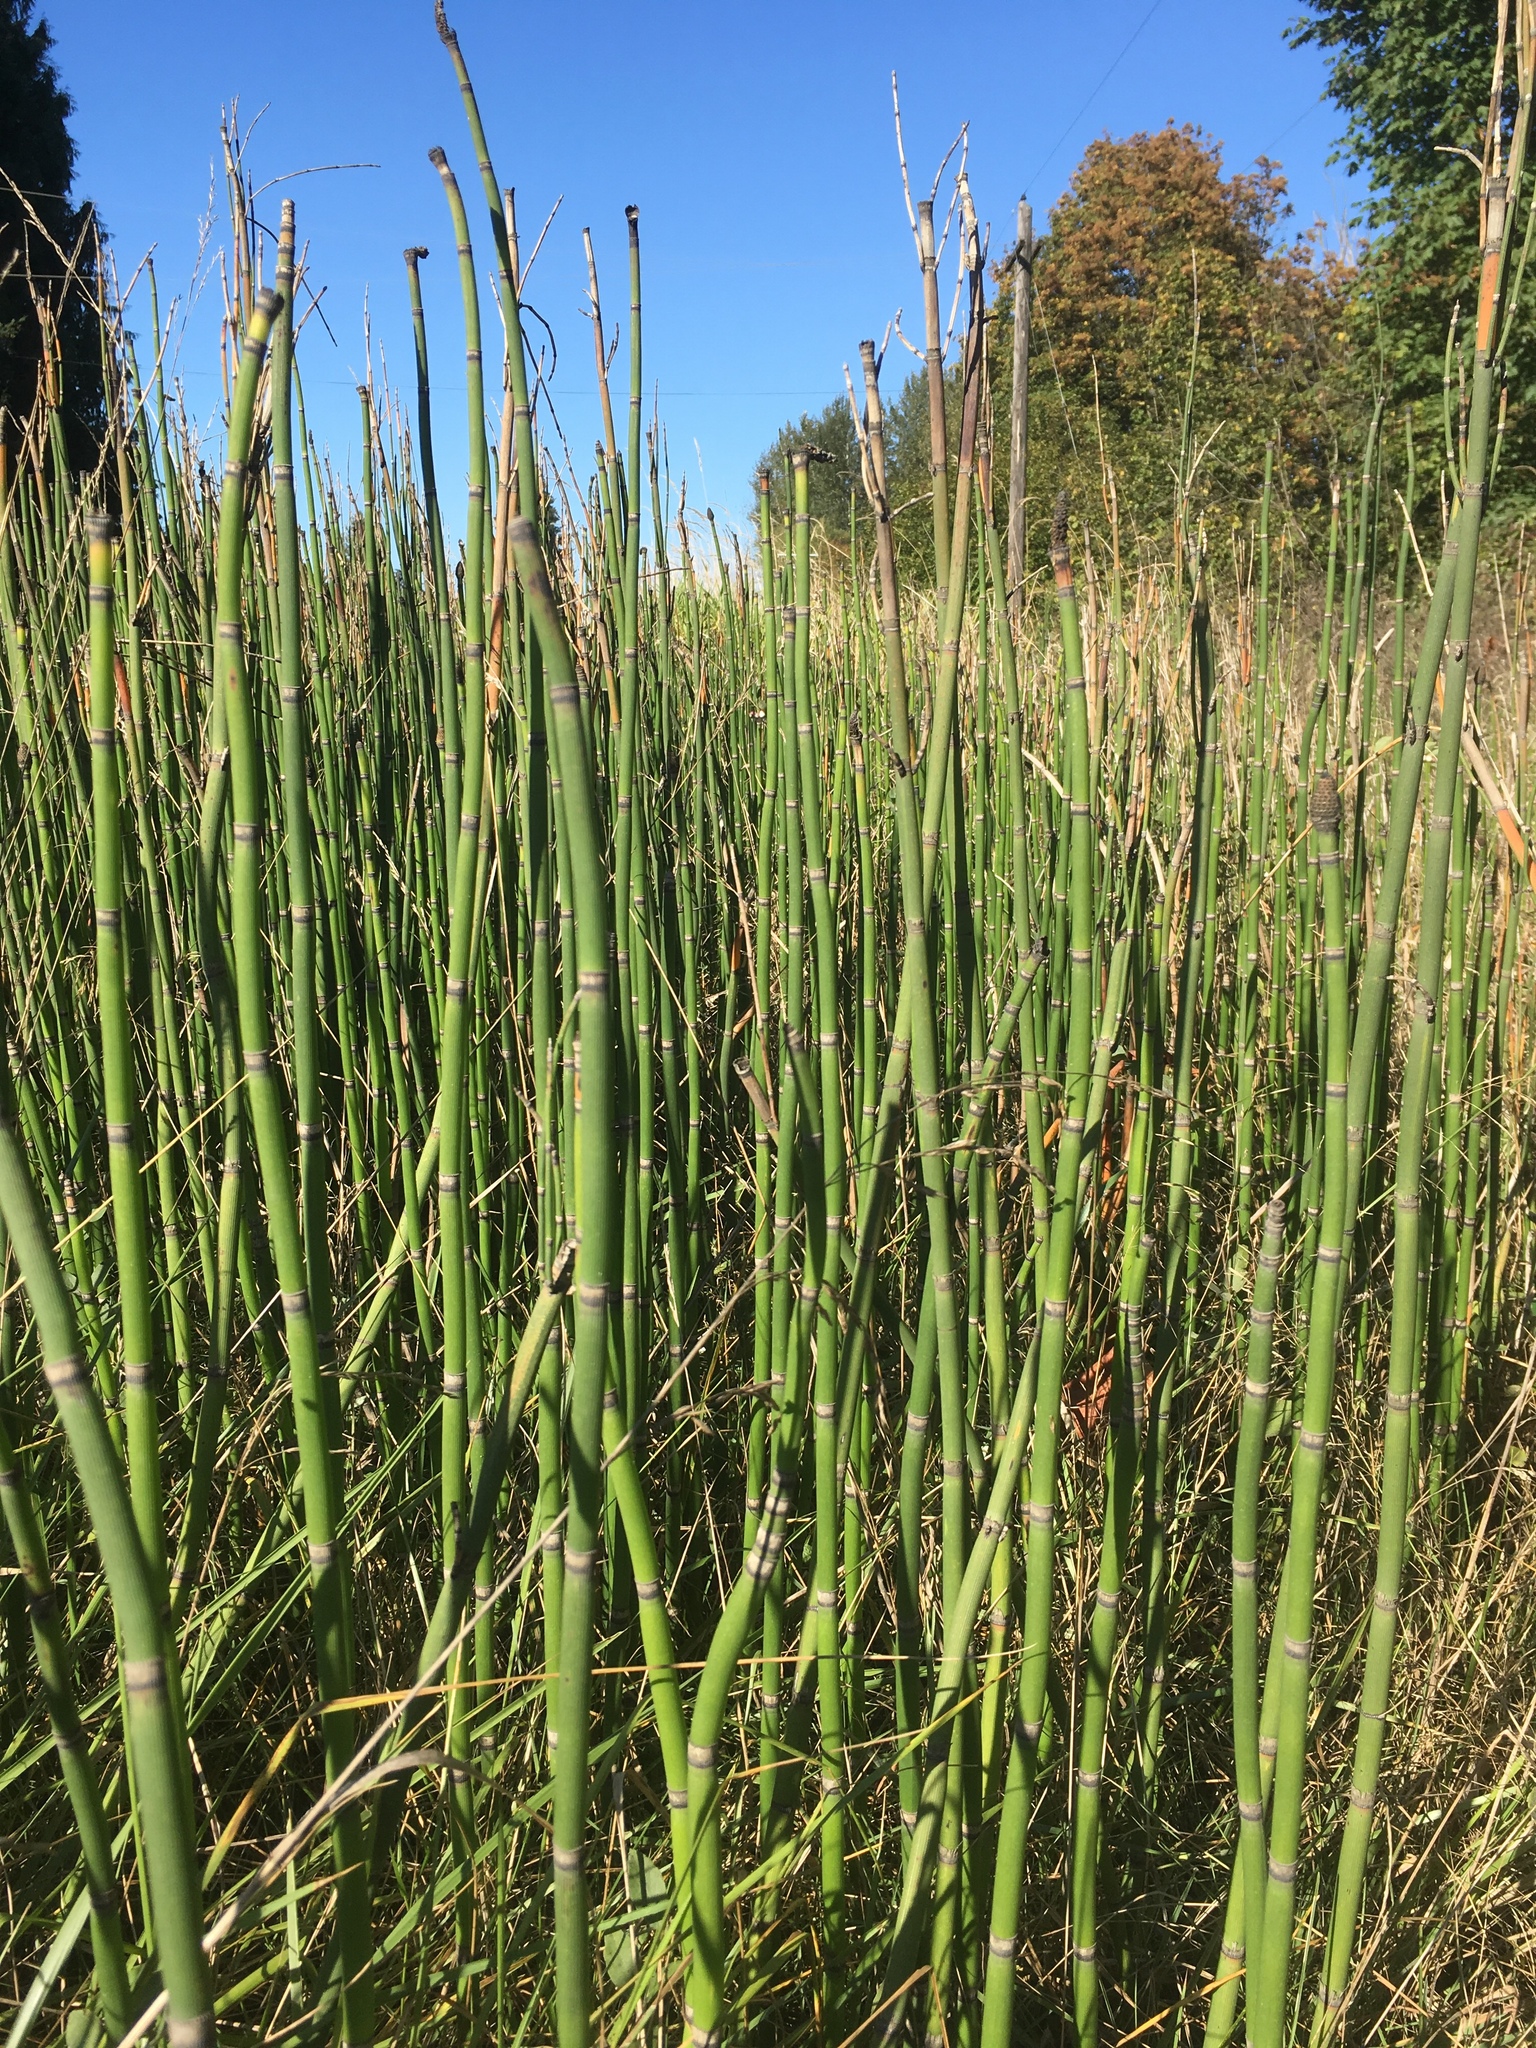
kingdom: Plantae
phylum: Tracheophyta
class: Polypodiopsida
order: Equisetales
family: Equisetaceae
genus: Equisetum
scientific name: Equisetum hyemale
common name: Rough horsetail
